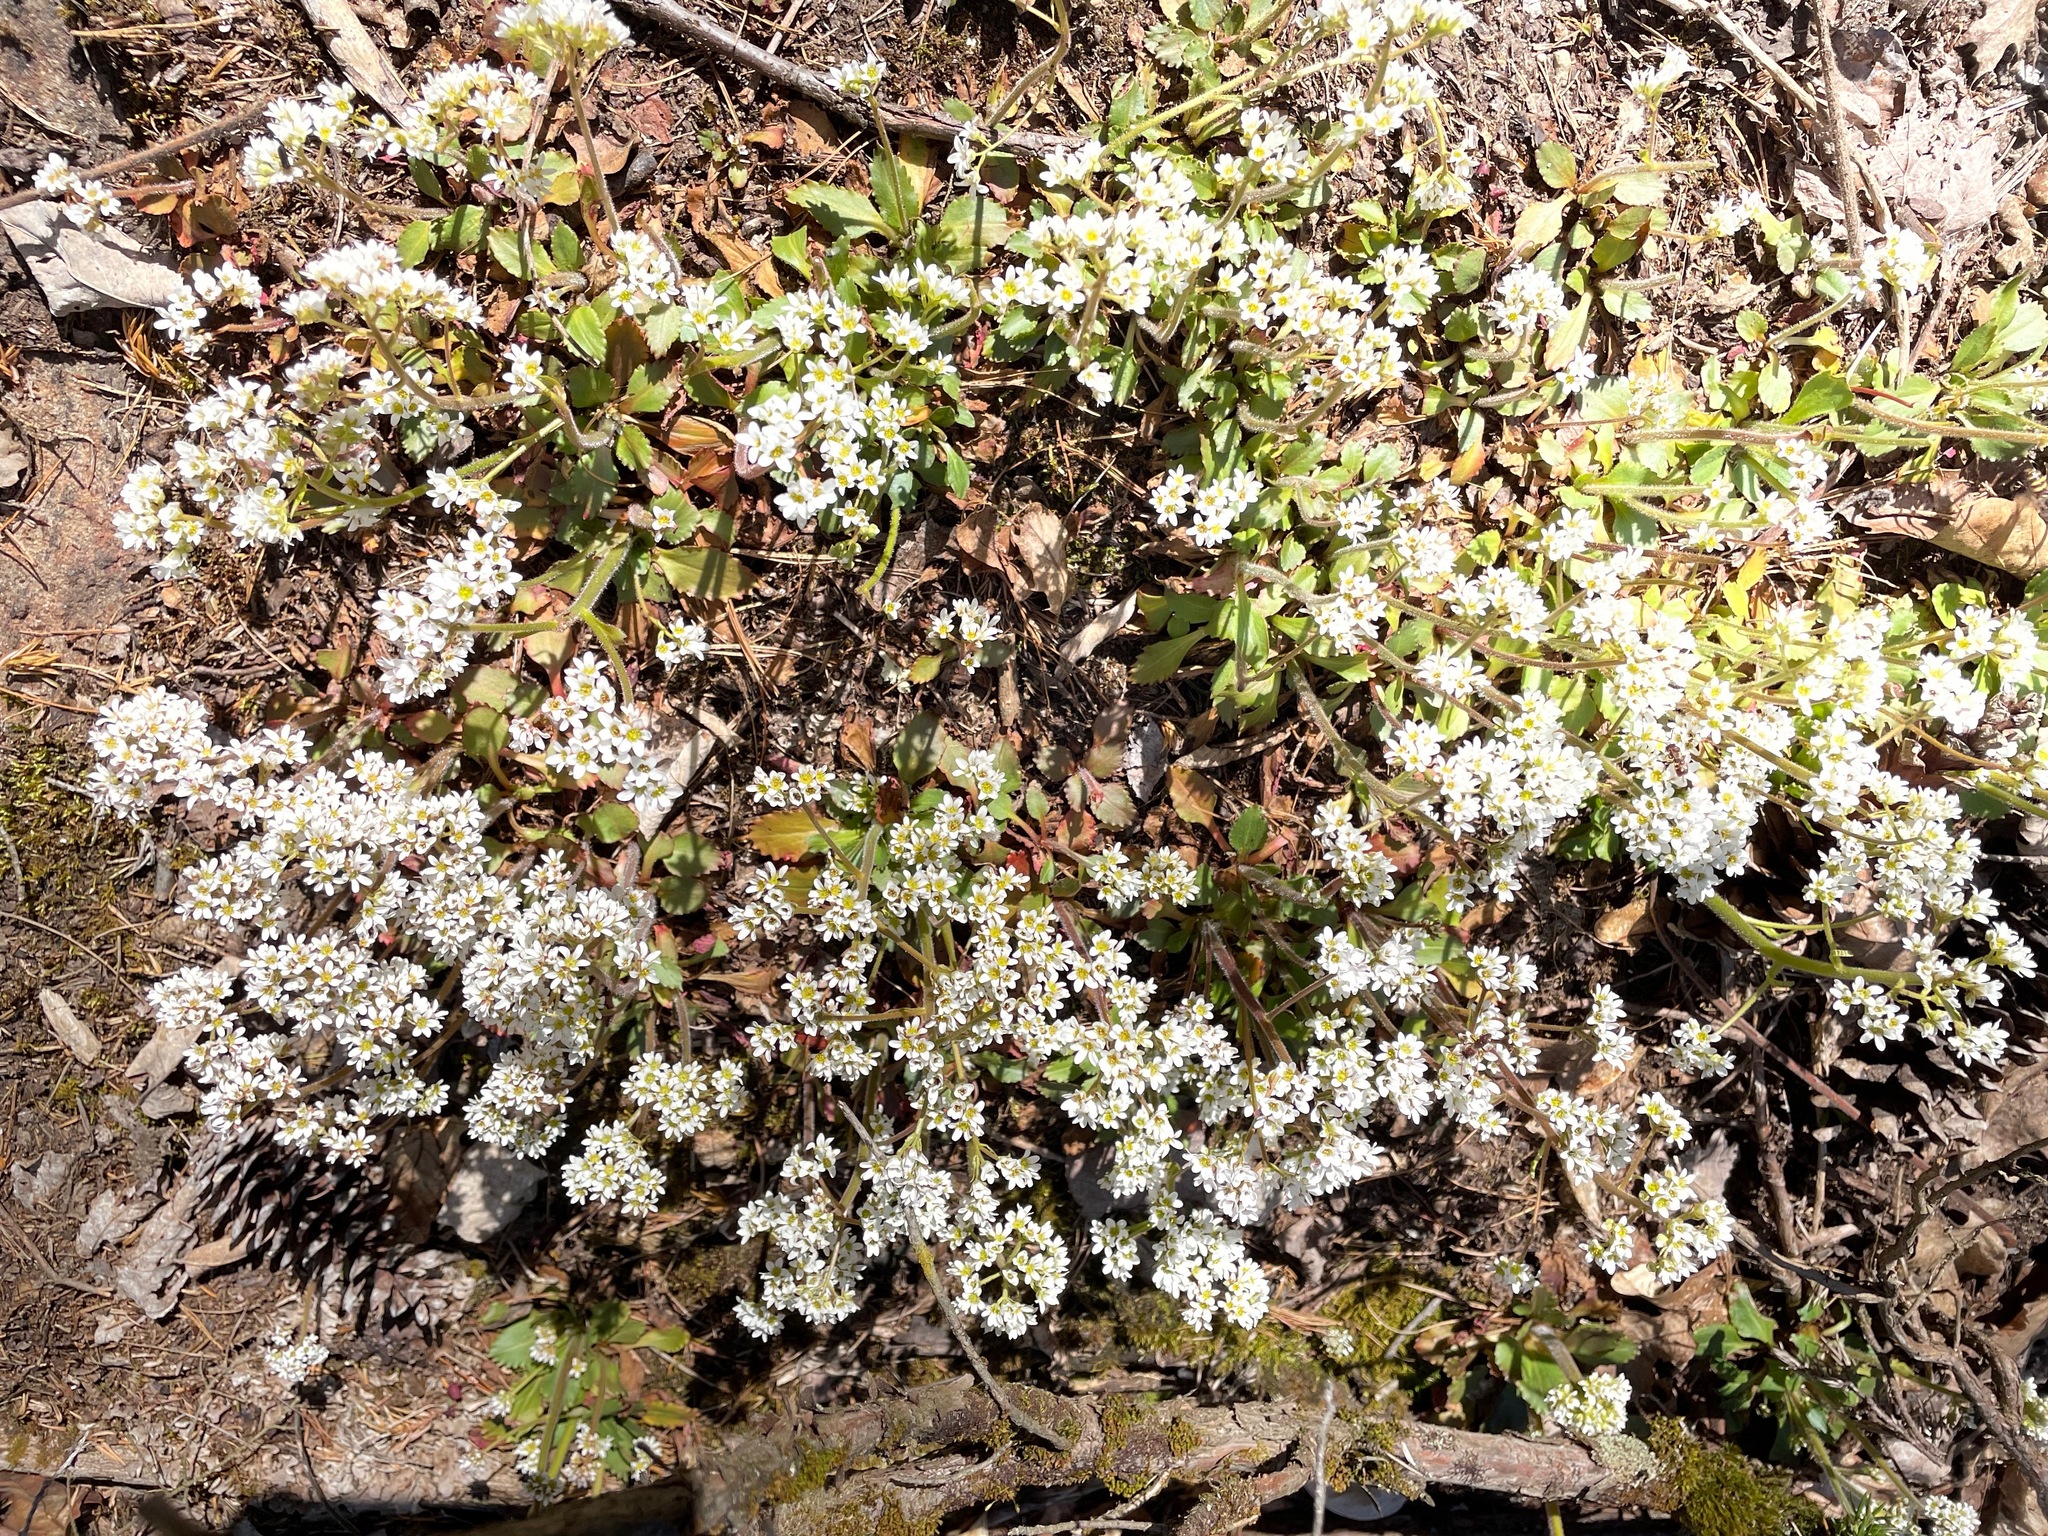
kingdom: Plantae
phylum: Tracheophyta
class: Magnoliopsida
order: Saxifragales
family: Saxifragaceae
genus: Micranthes
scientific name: Micranthes virginiensis
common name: Early saxifrage
